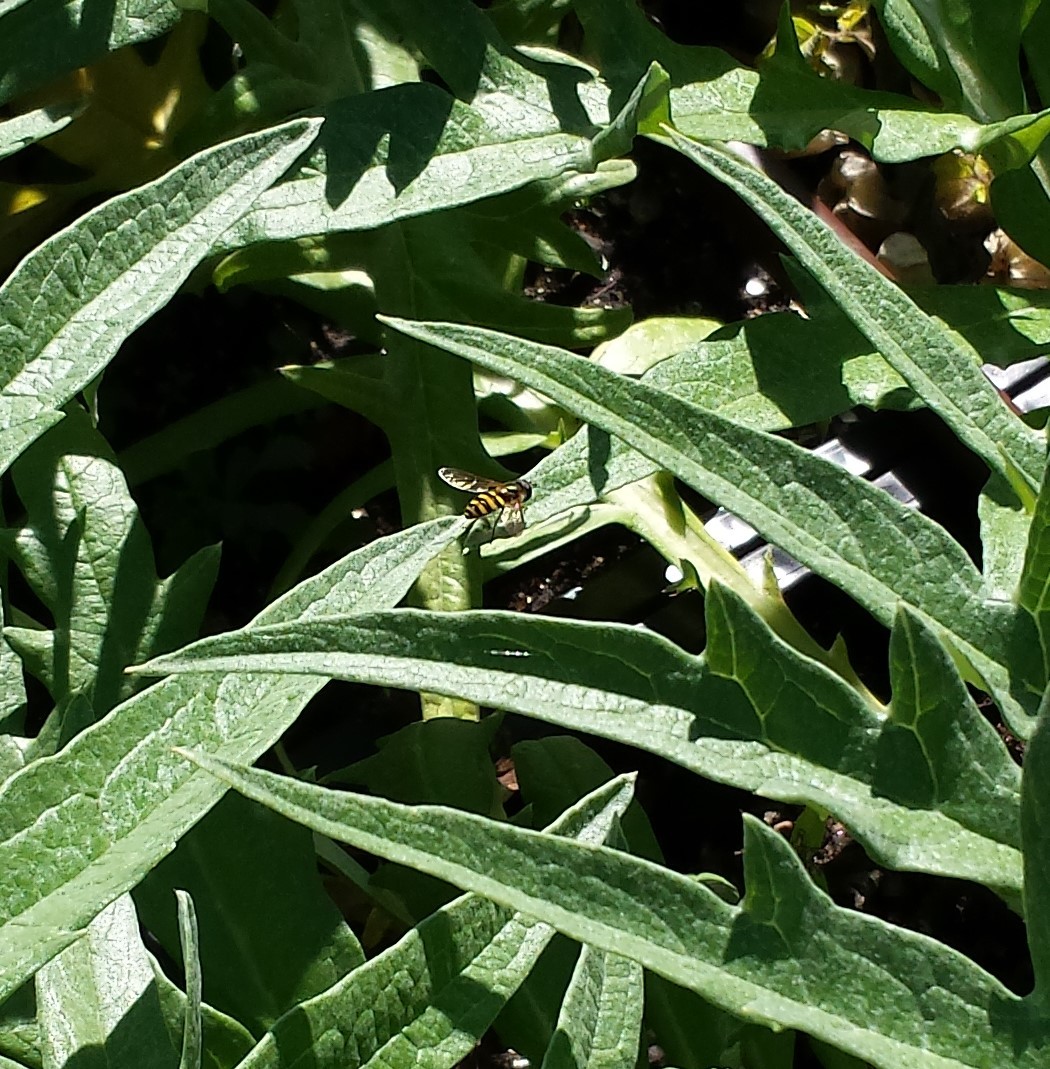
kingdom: Animalia
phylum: Arthropoda
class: Insecta
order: Diptera
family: Syrphidae
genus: Eupeodes
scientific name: Eupeodes
